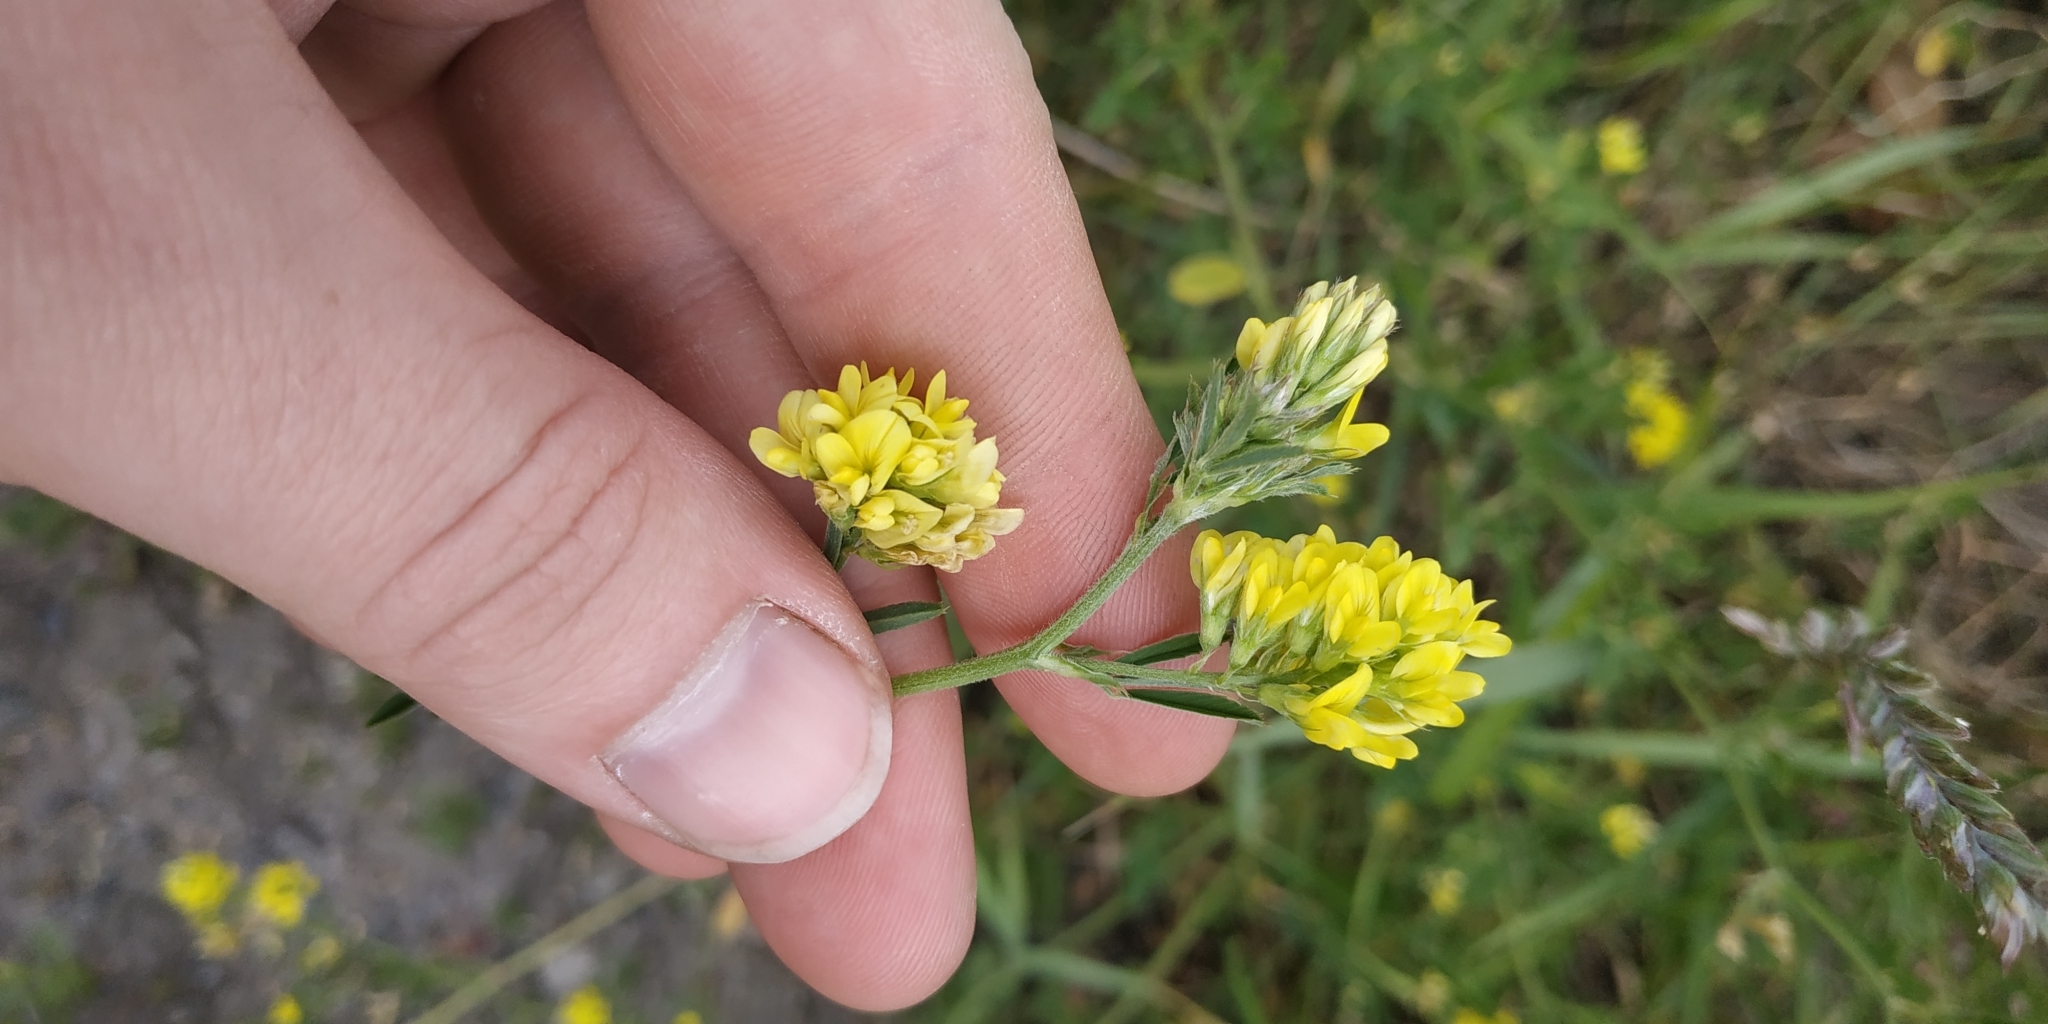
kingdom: Plantae
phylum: Tracheophyta
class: Magnoliopsida
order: Fabales
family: Fabaceae
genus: Medicago
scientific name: Medicago falcata
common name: Sickle medick
